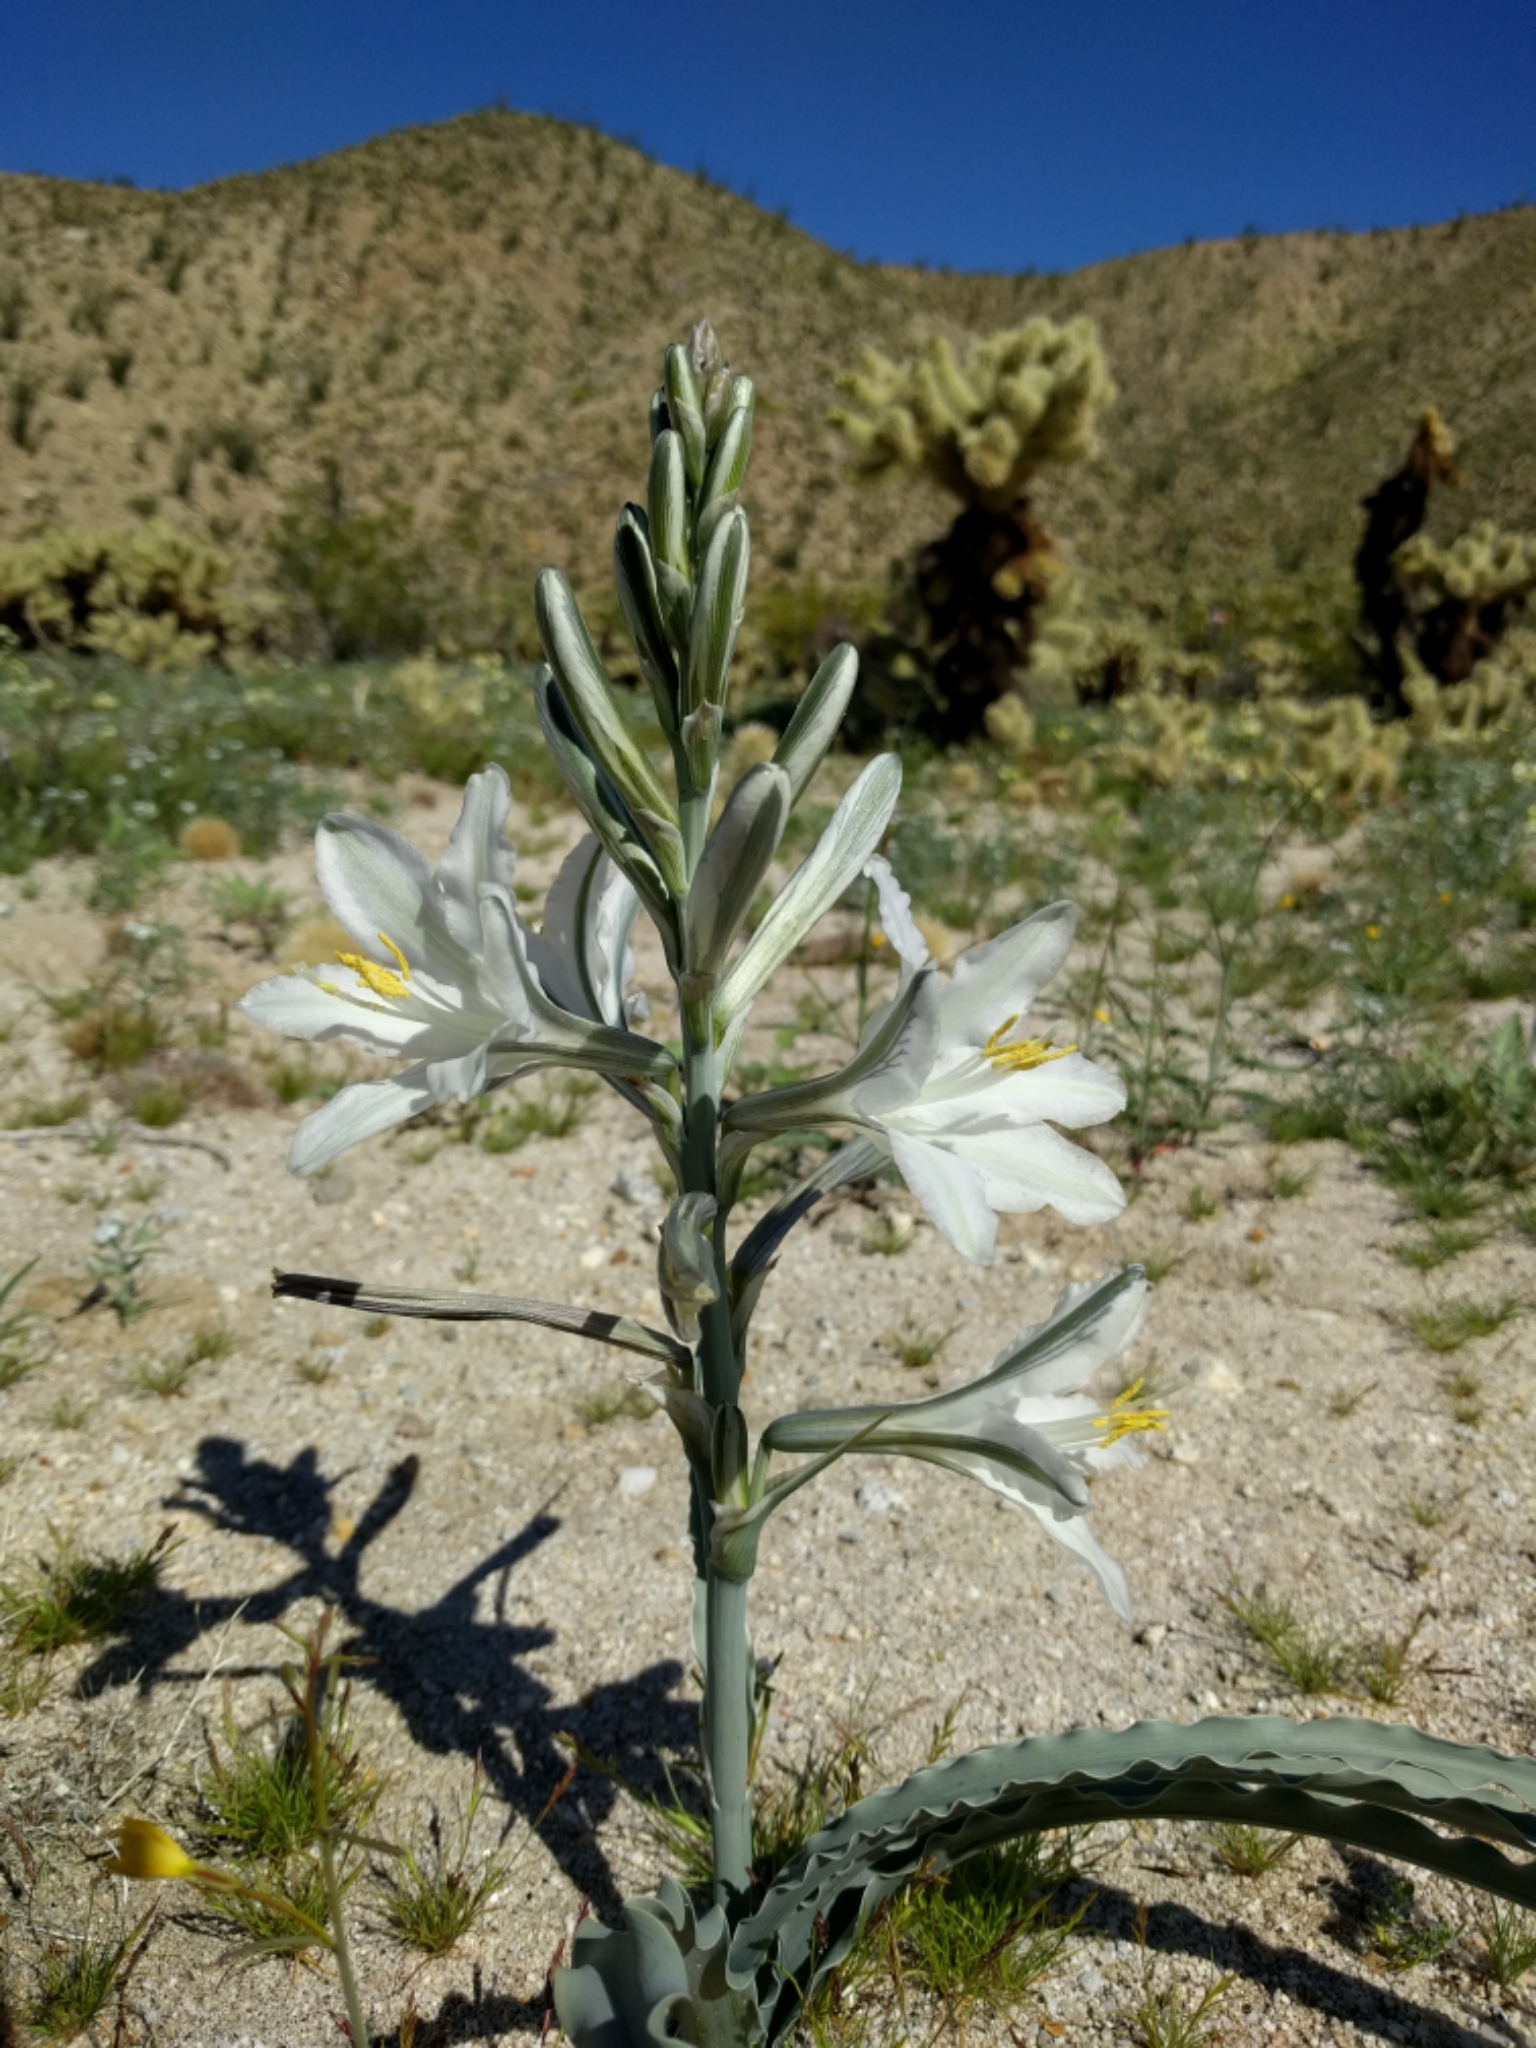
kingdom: Plantae
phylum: Tracheophyta
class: Liliopsida
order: Asparagales
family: Asparagaceae
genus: Hesperocallis
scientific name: Hesperocallis undulata
